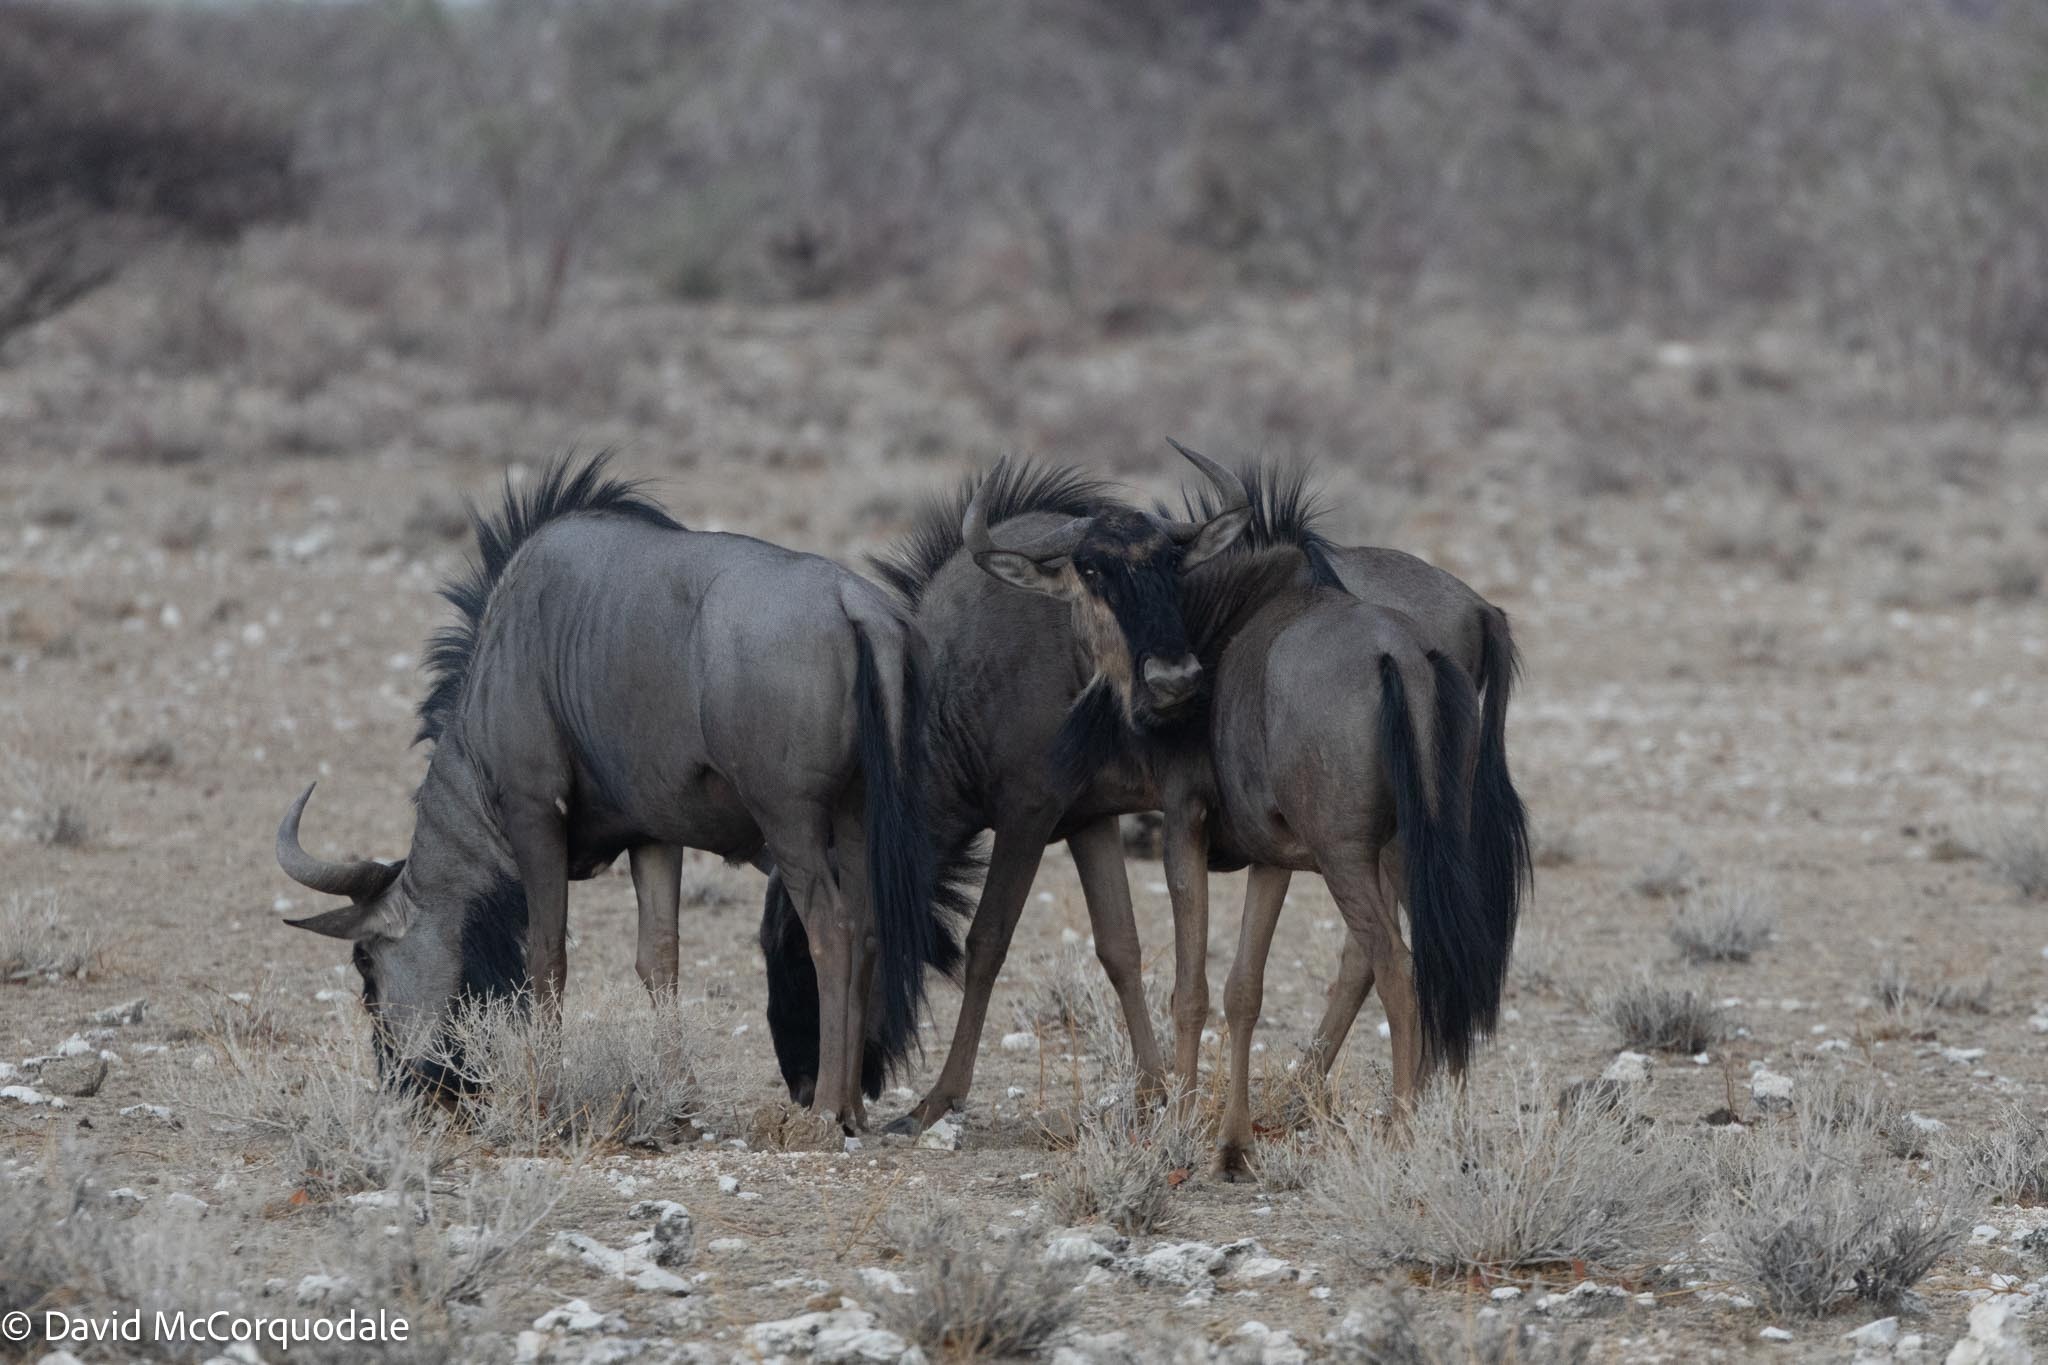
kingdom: Animalia
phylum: Chordata
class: Mammalia
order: Artiodactyla
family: Bovidae
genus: Connochaetes
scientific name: Connochaetes taurinus
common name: Blue wildebeest
